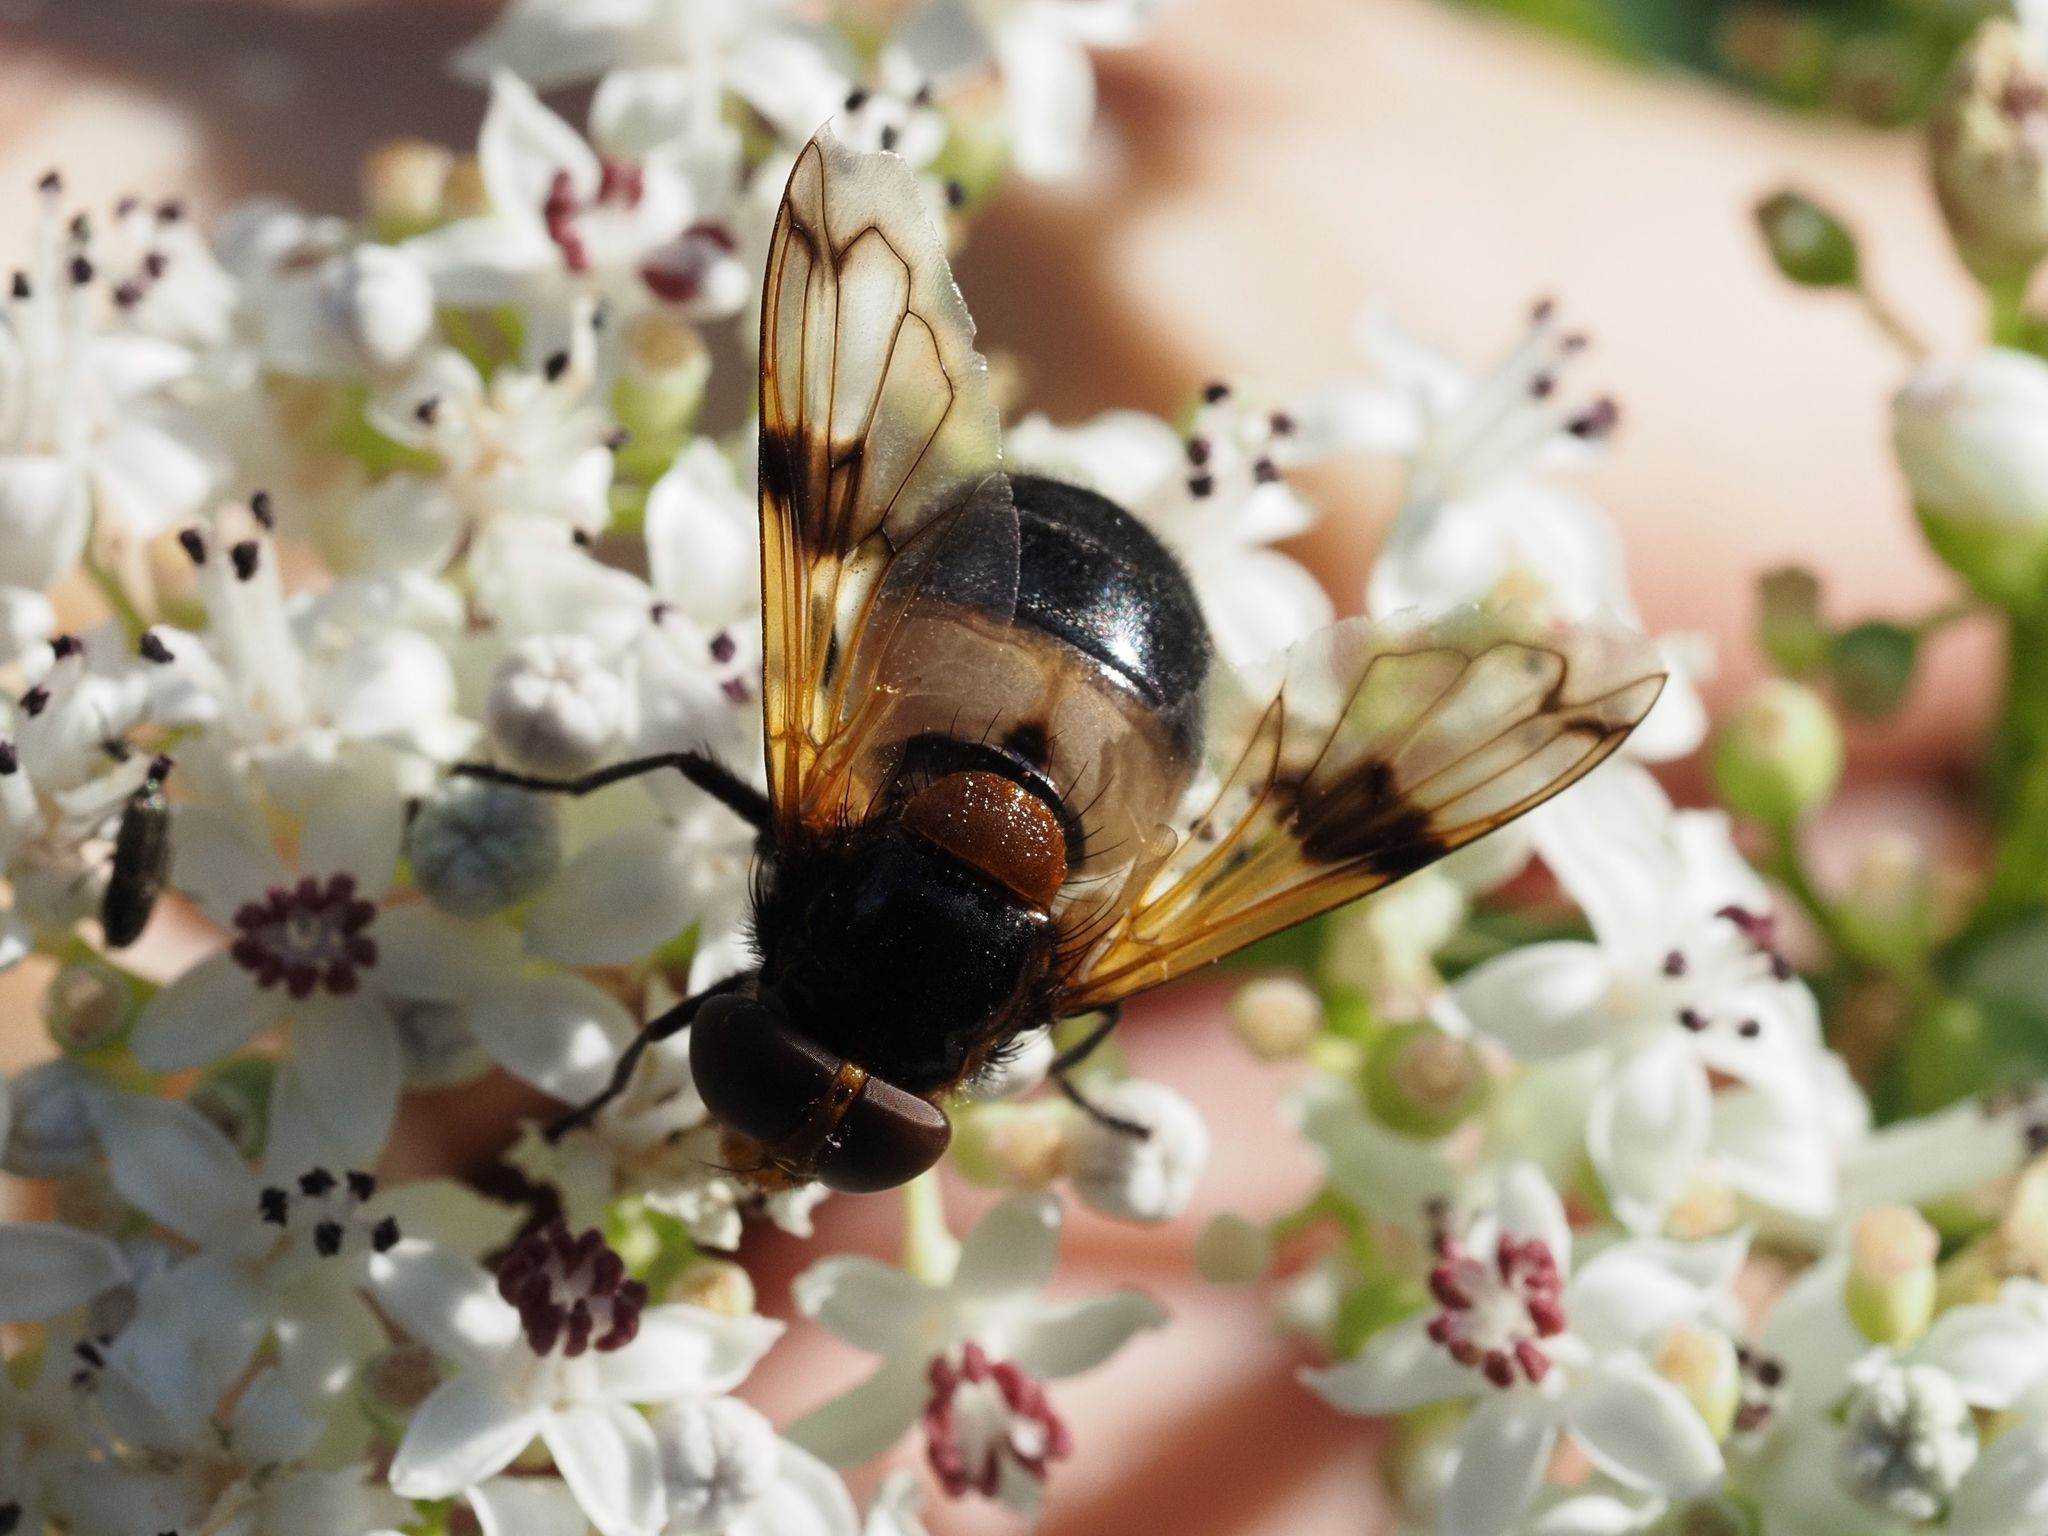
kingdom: Animalia
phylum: Arthropoda
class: Insecta
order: Diptera
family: Syrphidae
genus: Volucella
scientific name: Volucella pellucens
